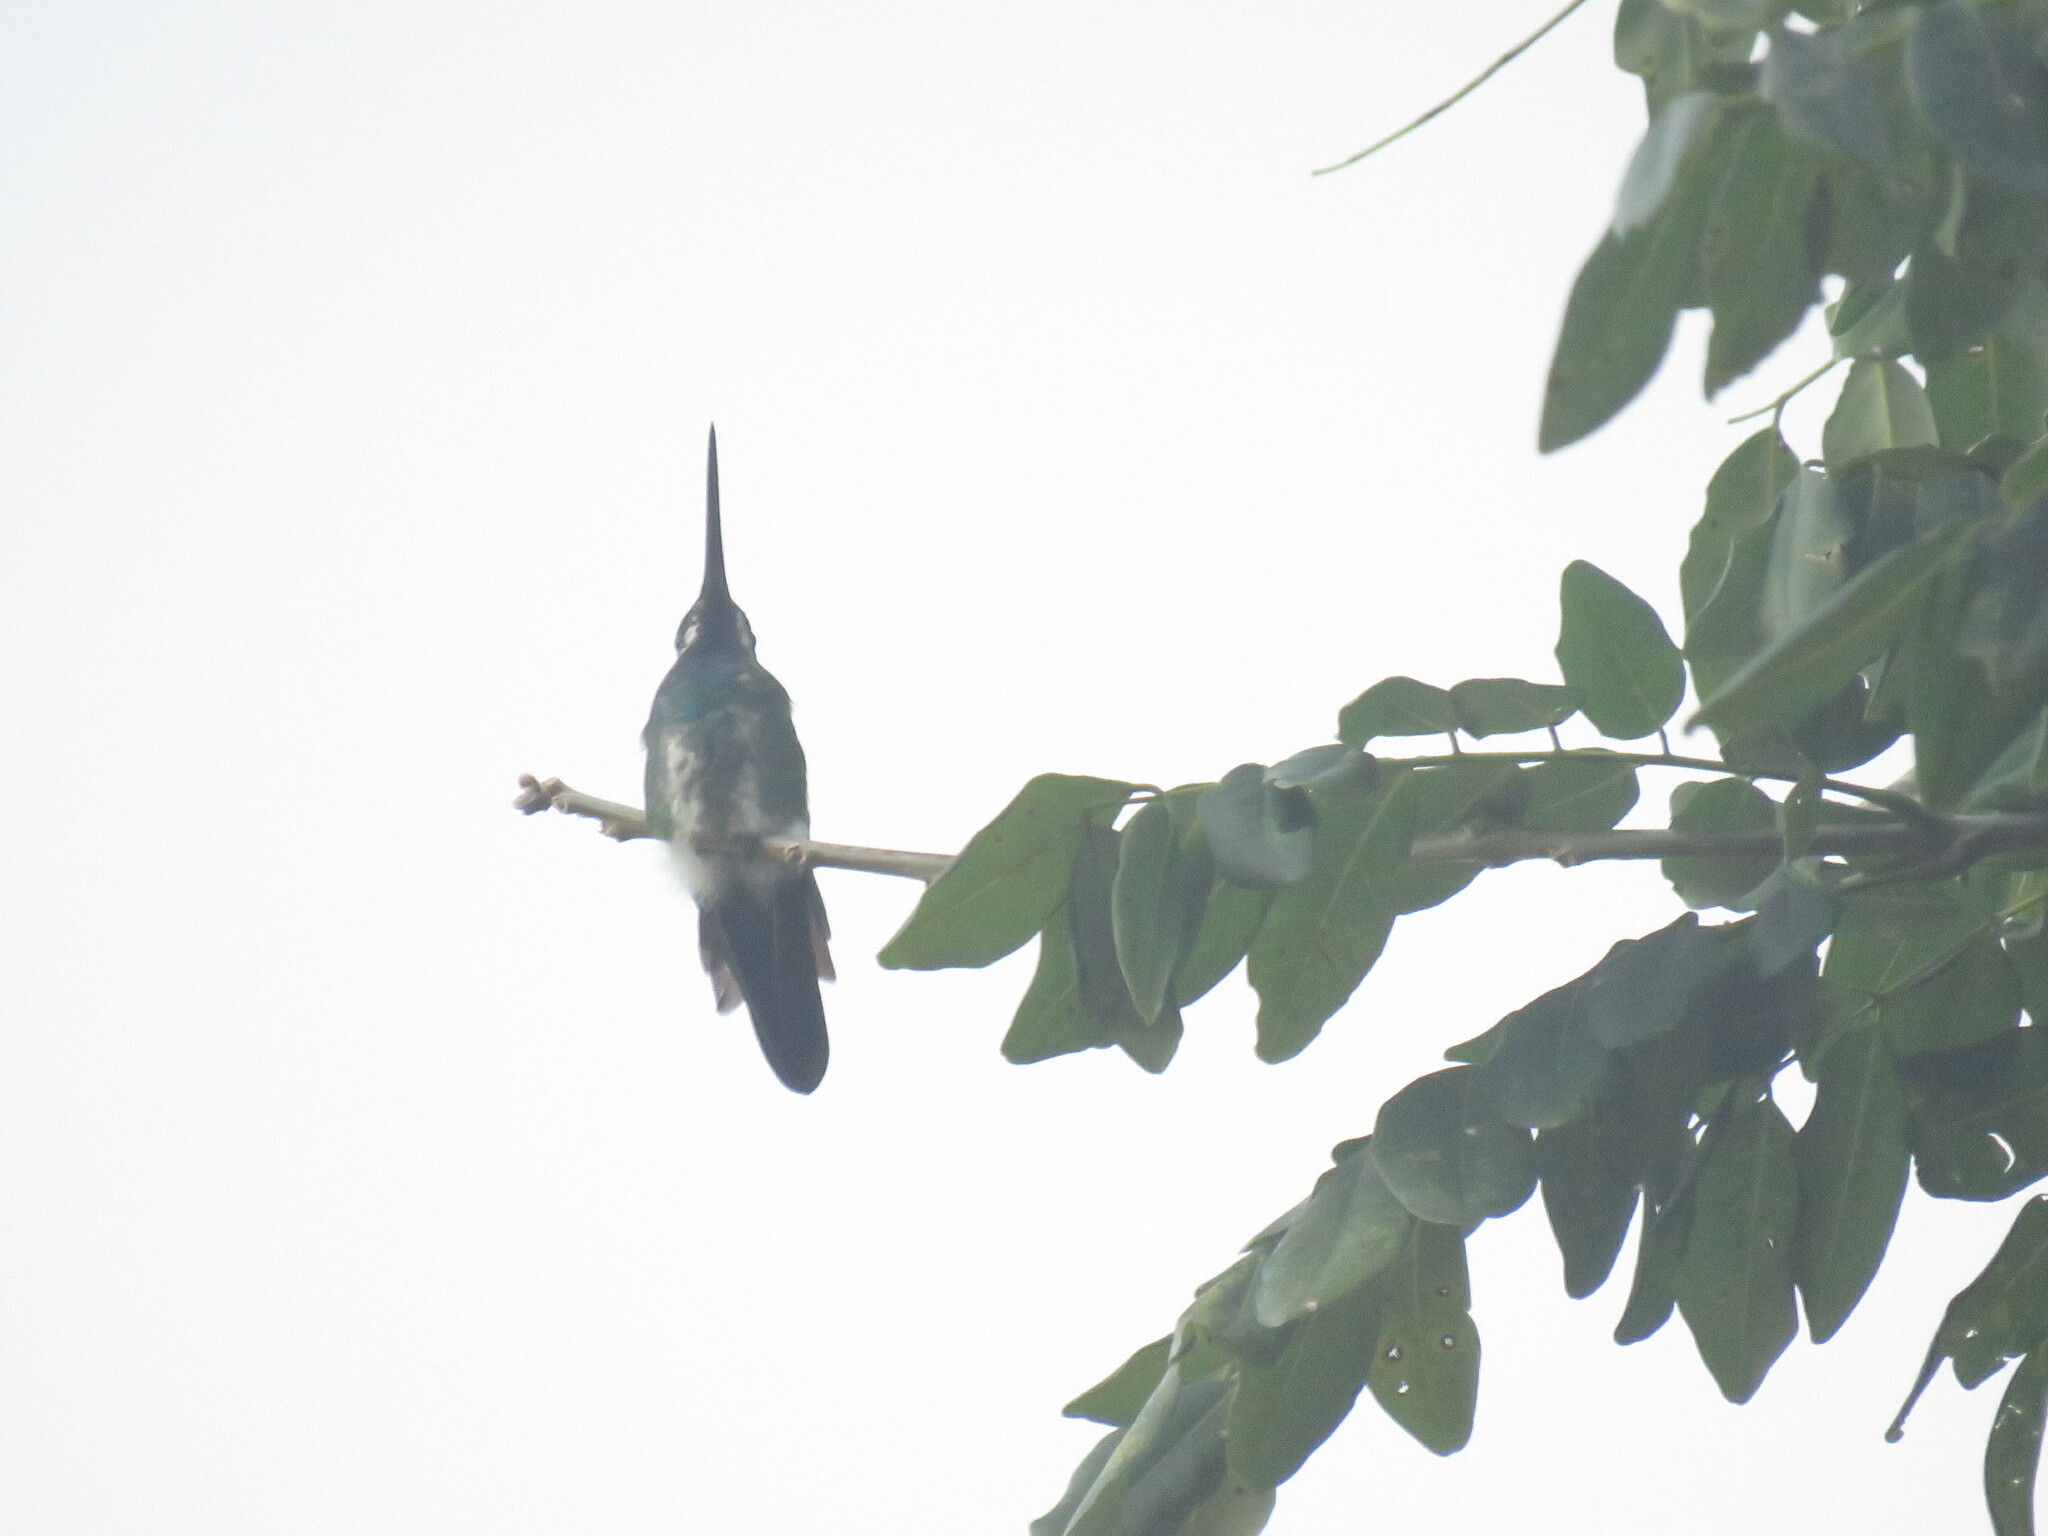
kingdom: Animalia
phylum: Chordata
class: Aves
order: Apodiformes
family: Trochilidae
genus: Anthracothorax
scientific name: Anthracothorax prevostii
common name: Green-breasted mango
